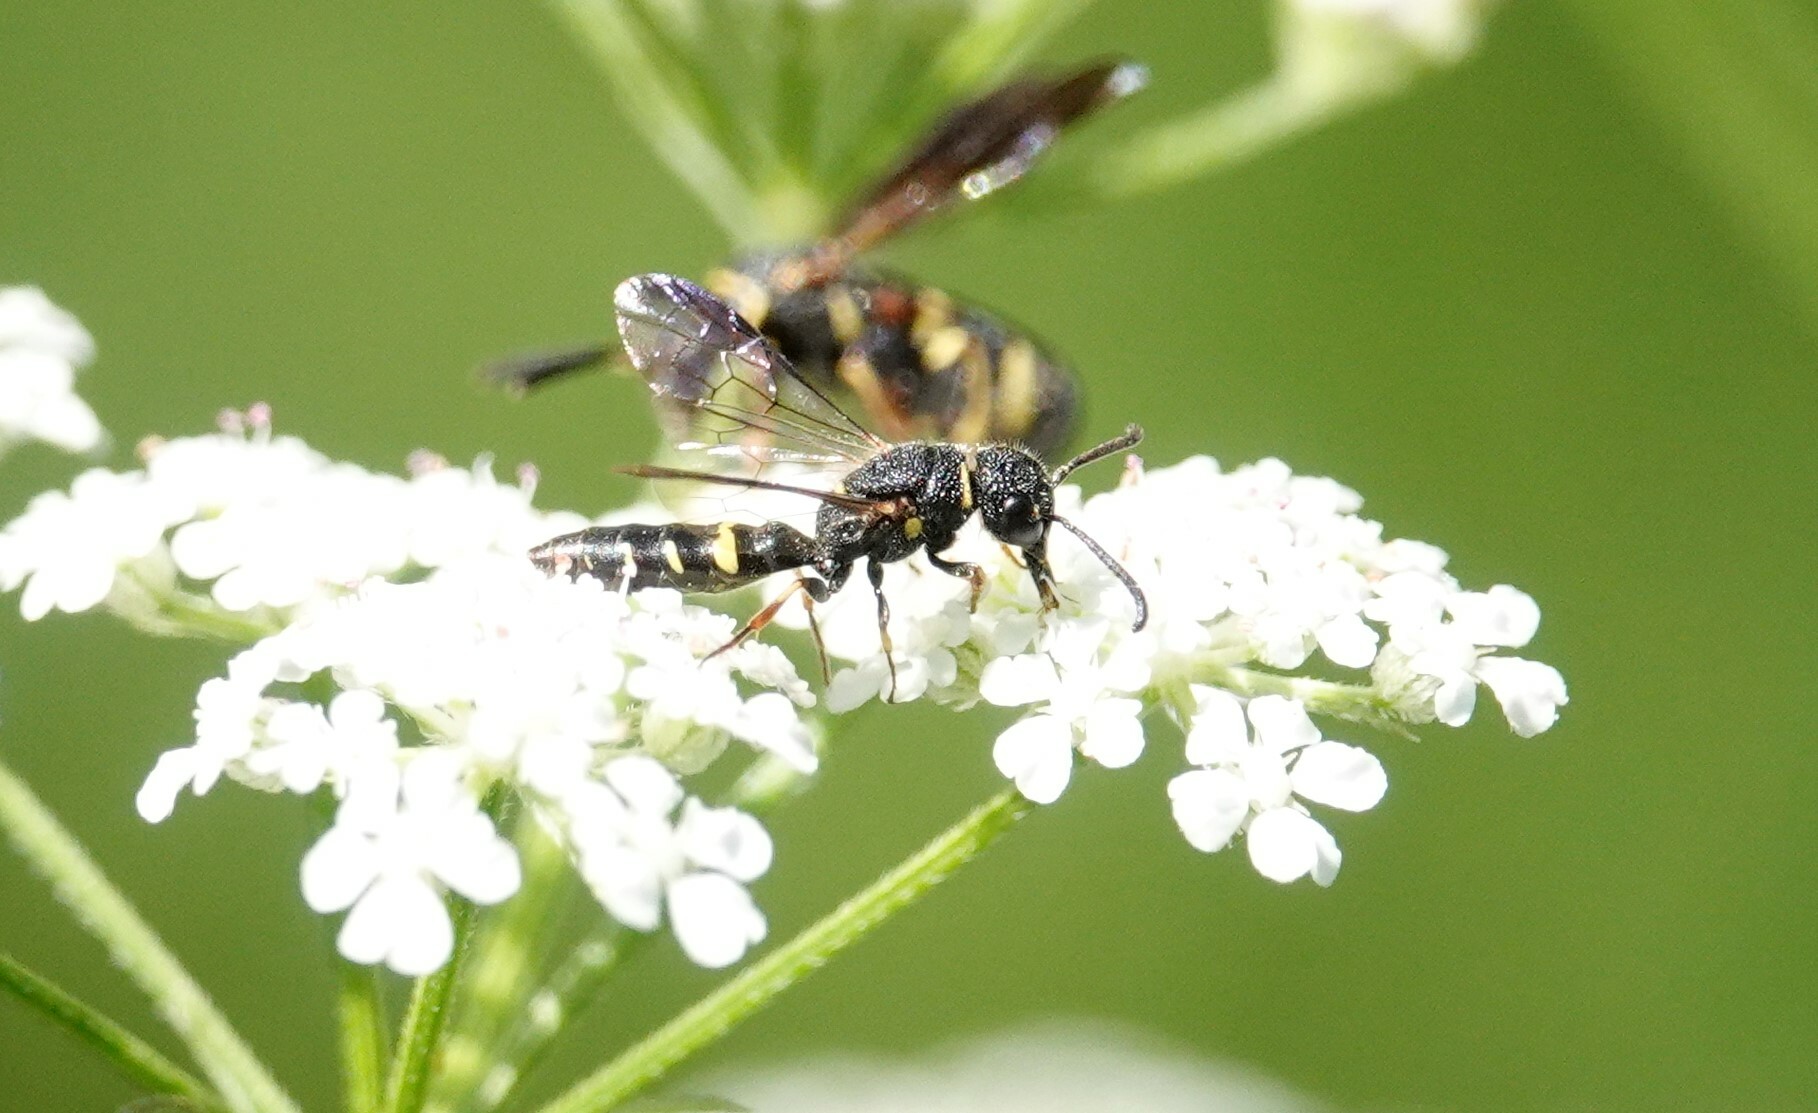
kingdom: Animalia
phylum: Arthropoda
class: Insecta
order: Hymenoptera
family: Sapygidae
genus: Sapyga
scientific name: Sapyga louisi
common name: Louis's club-horned cuckoo wasp
